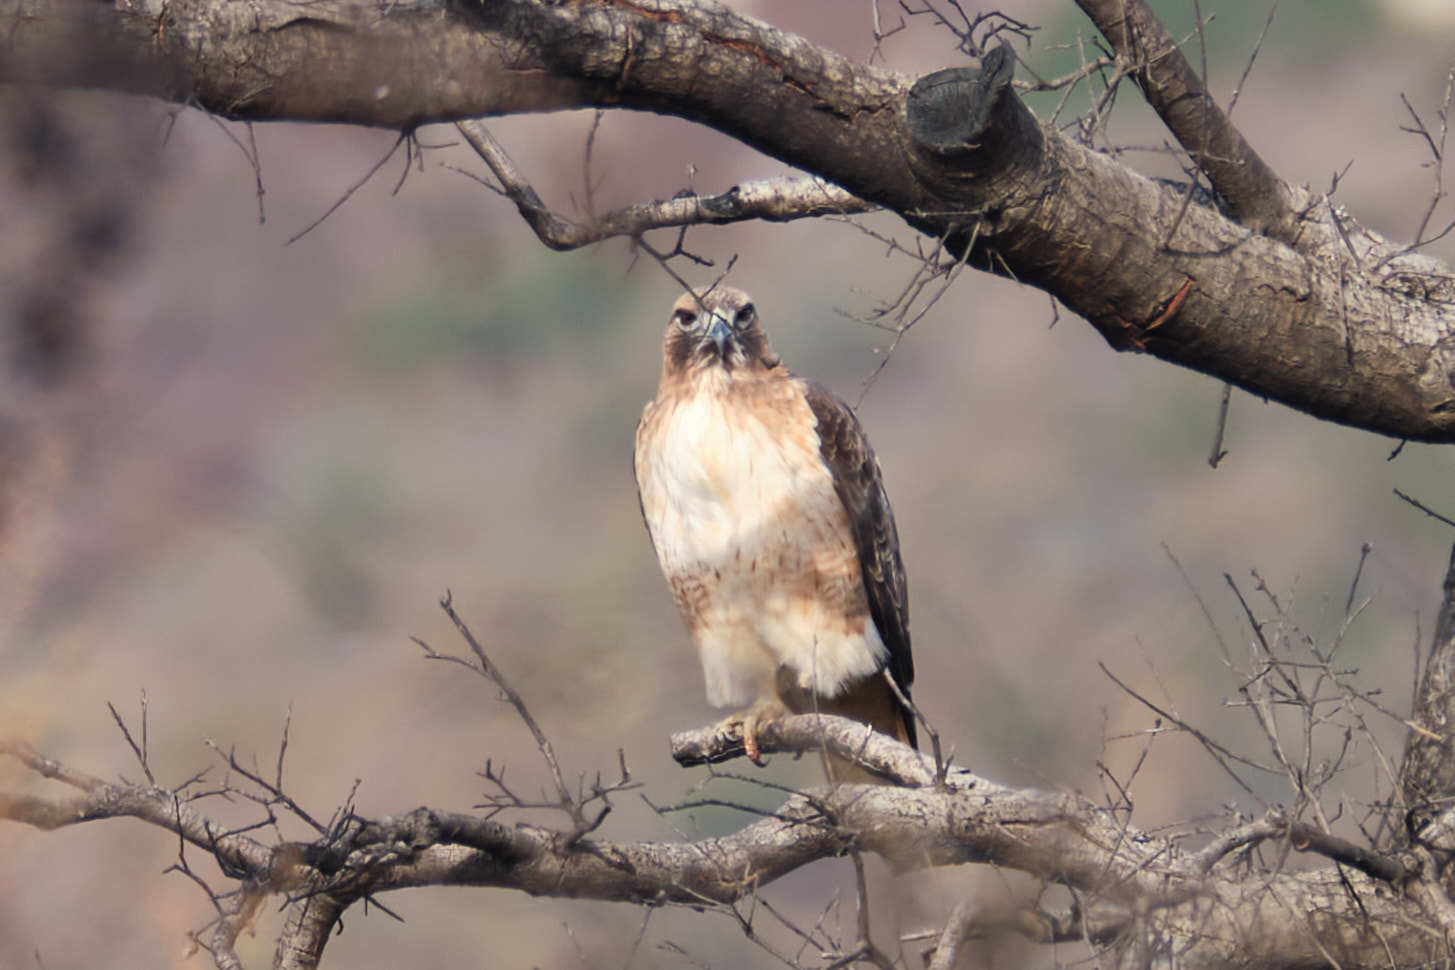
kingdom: Animalia
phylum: Chordata
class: Aves
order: Accipitriformes
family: Accipitridae
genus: Buteo
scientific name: Buteo jamaicensis
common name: Red-tailed hawk
